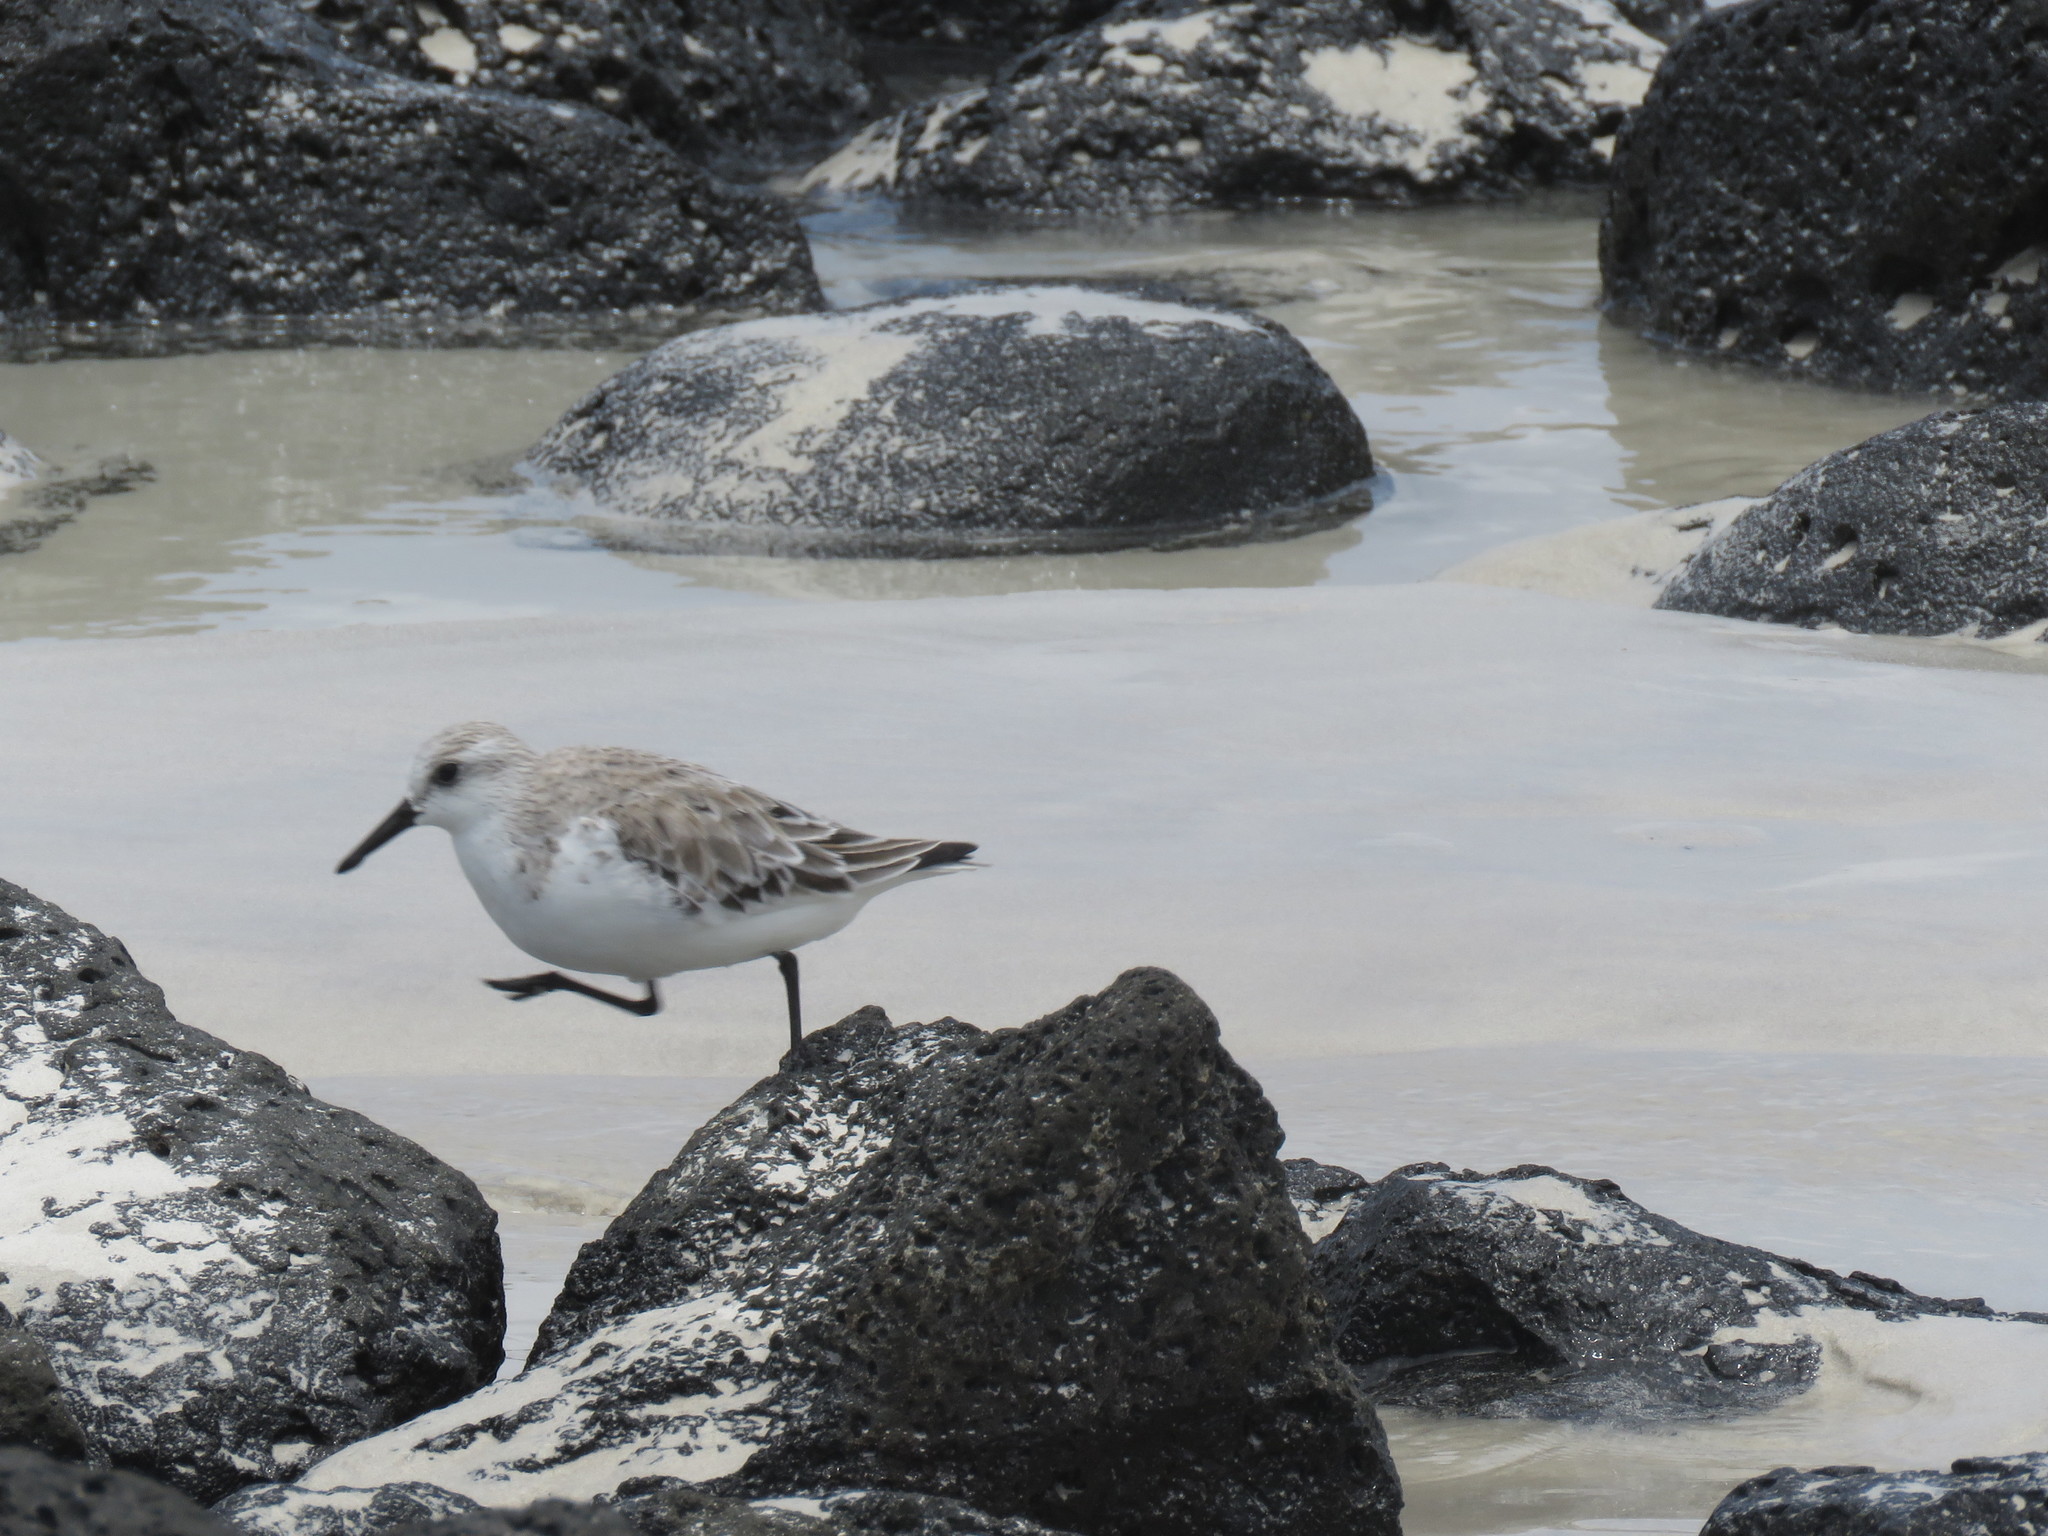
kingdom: Animalia
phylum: Chordata
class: Aves
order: Charadriiformes
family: Scolopacidae
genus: Calidris
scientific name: Calidris alba
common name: Sanderling
